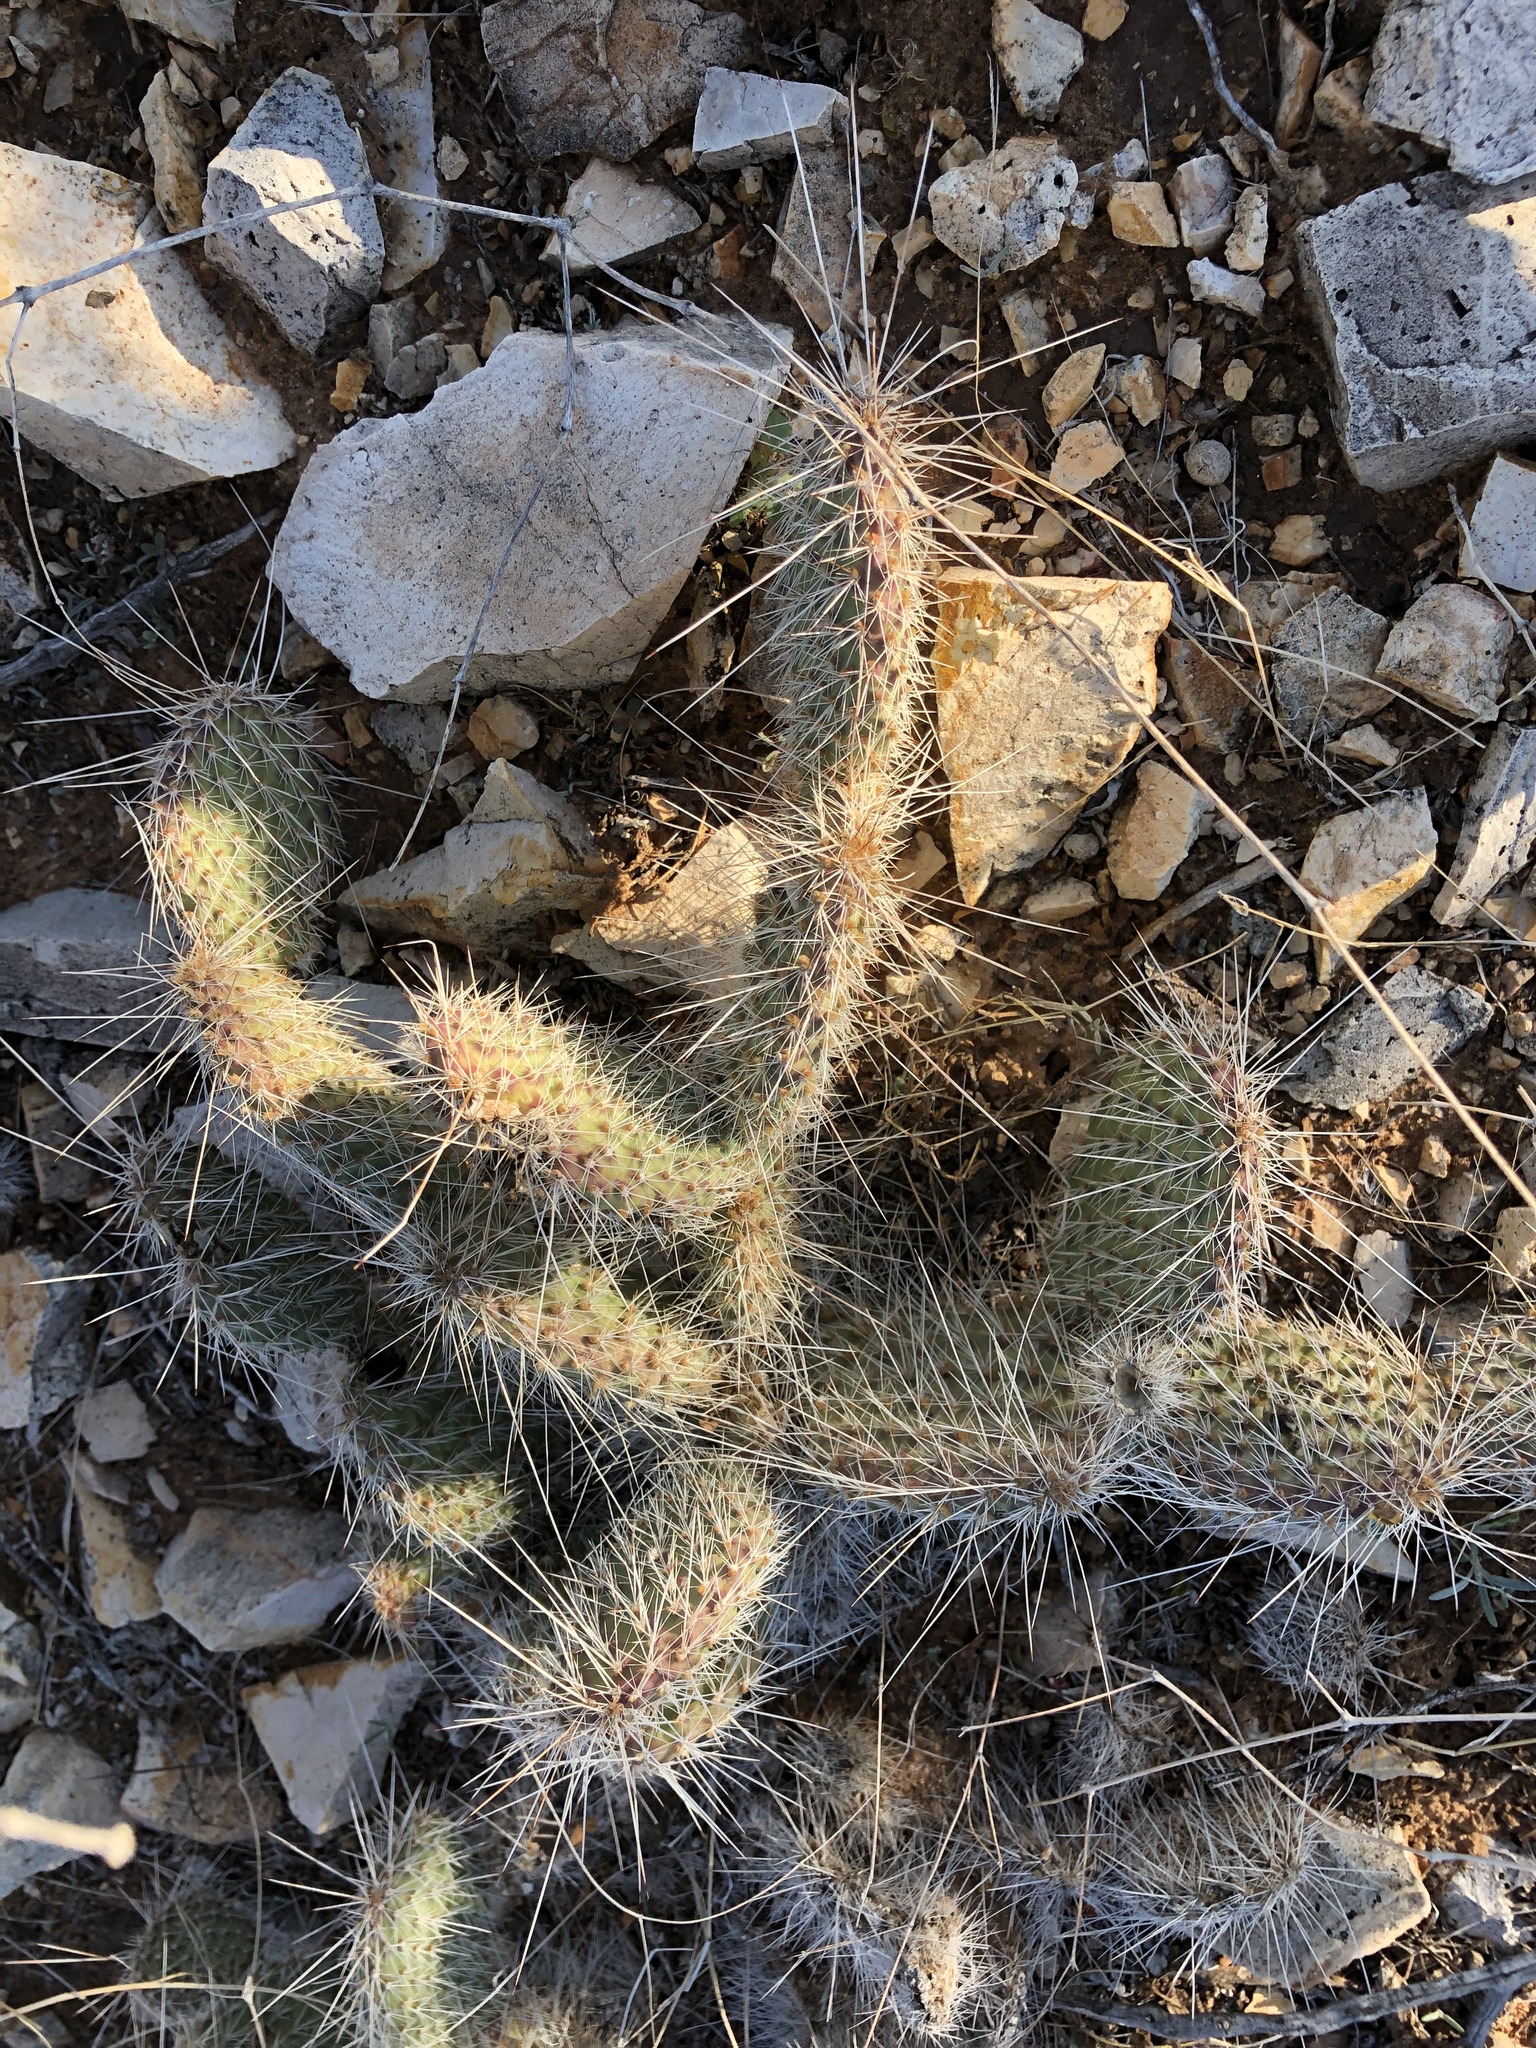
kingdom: Plantae
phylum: Tracheophyta
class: Magnoliopsida
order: Caryophyllales
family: Cactaceae
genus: Opuntia
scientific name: Opuntia polyacantha
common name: Plains prickly-pear
